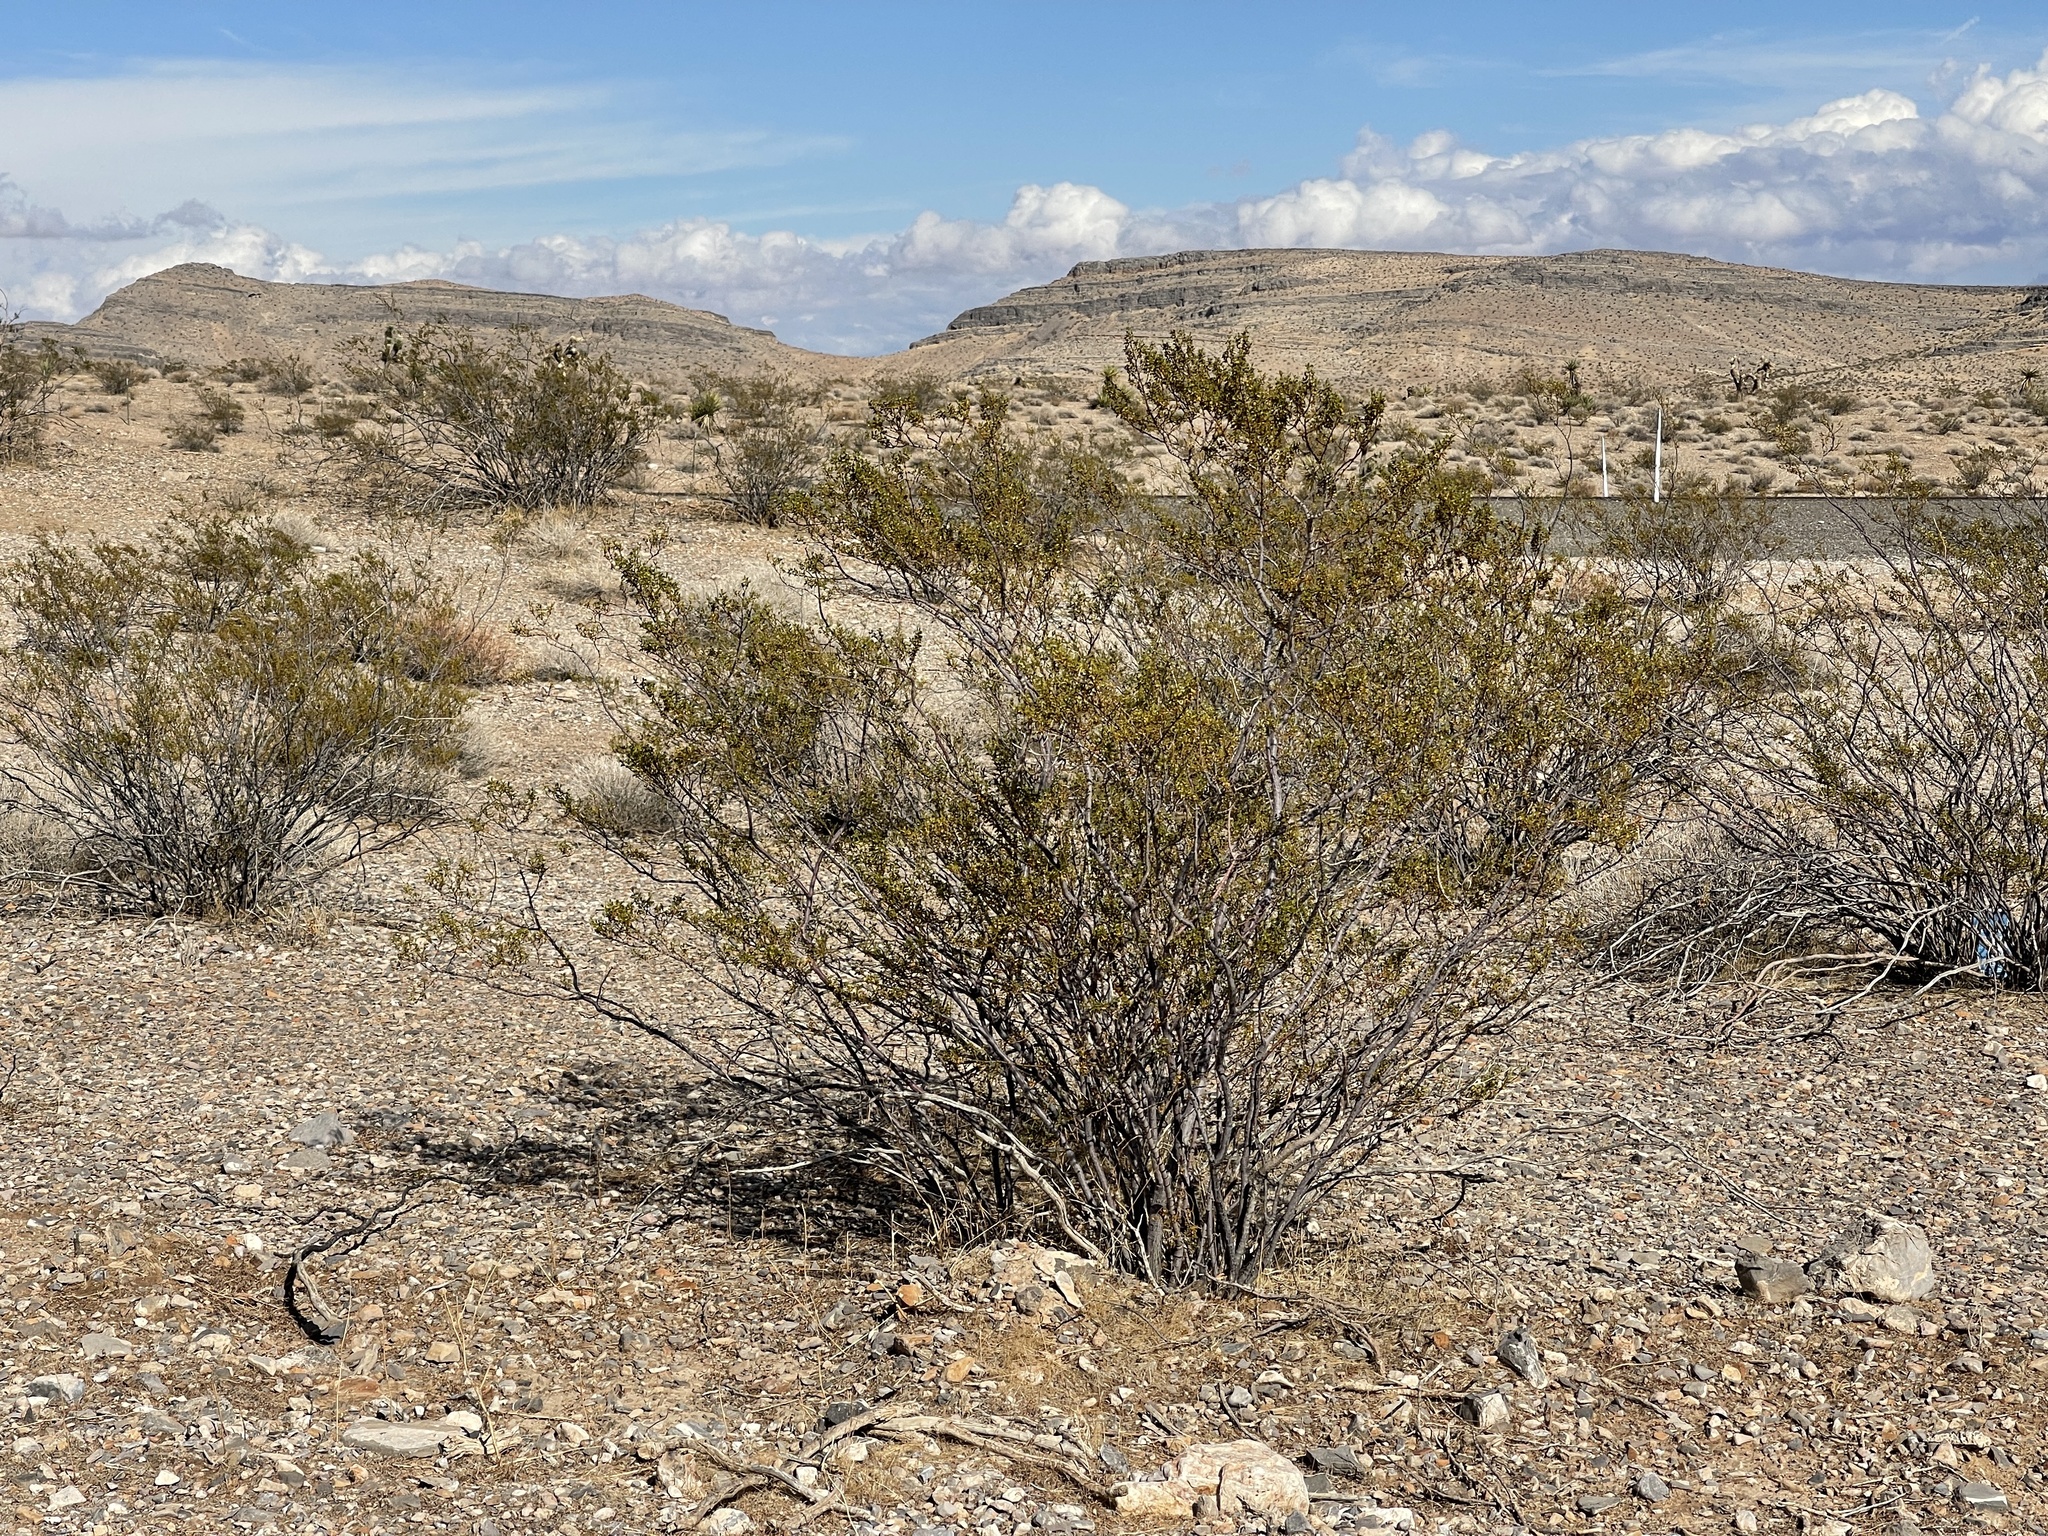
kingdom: Plantae
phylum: Tracheophyta
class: Magnoliopsida
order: Zygophyllales
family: Zygophyllaceae
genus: Larrea
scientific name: Larrea tridentata
